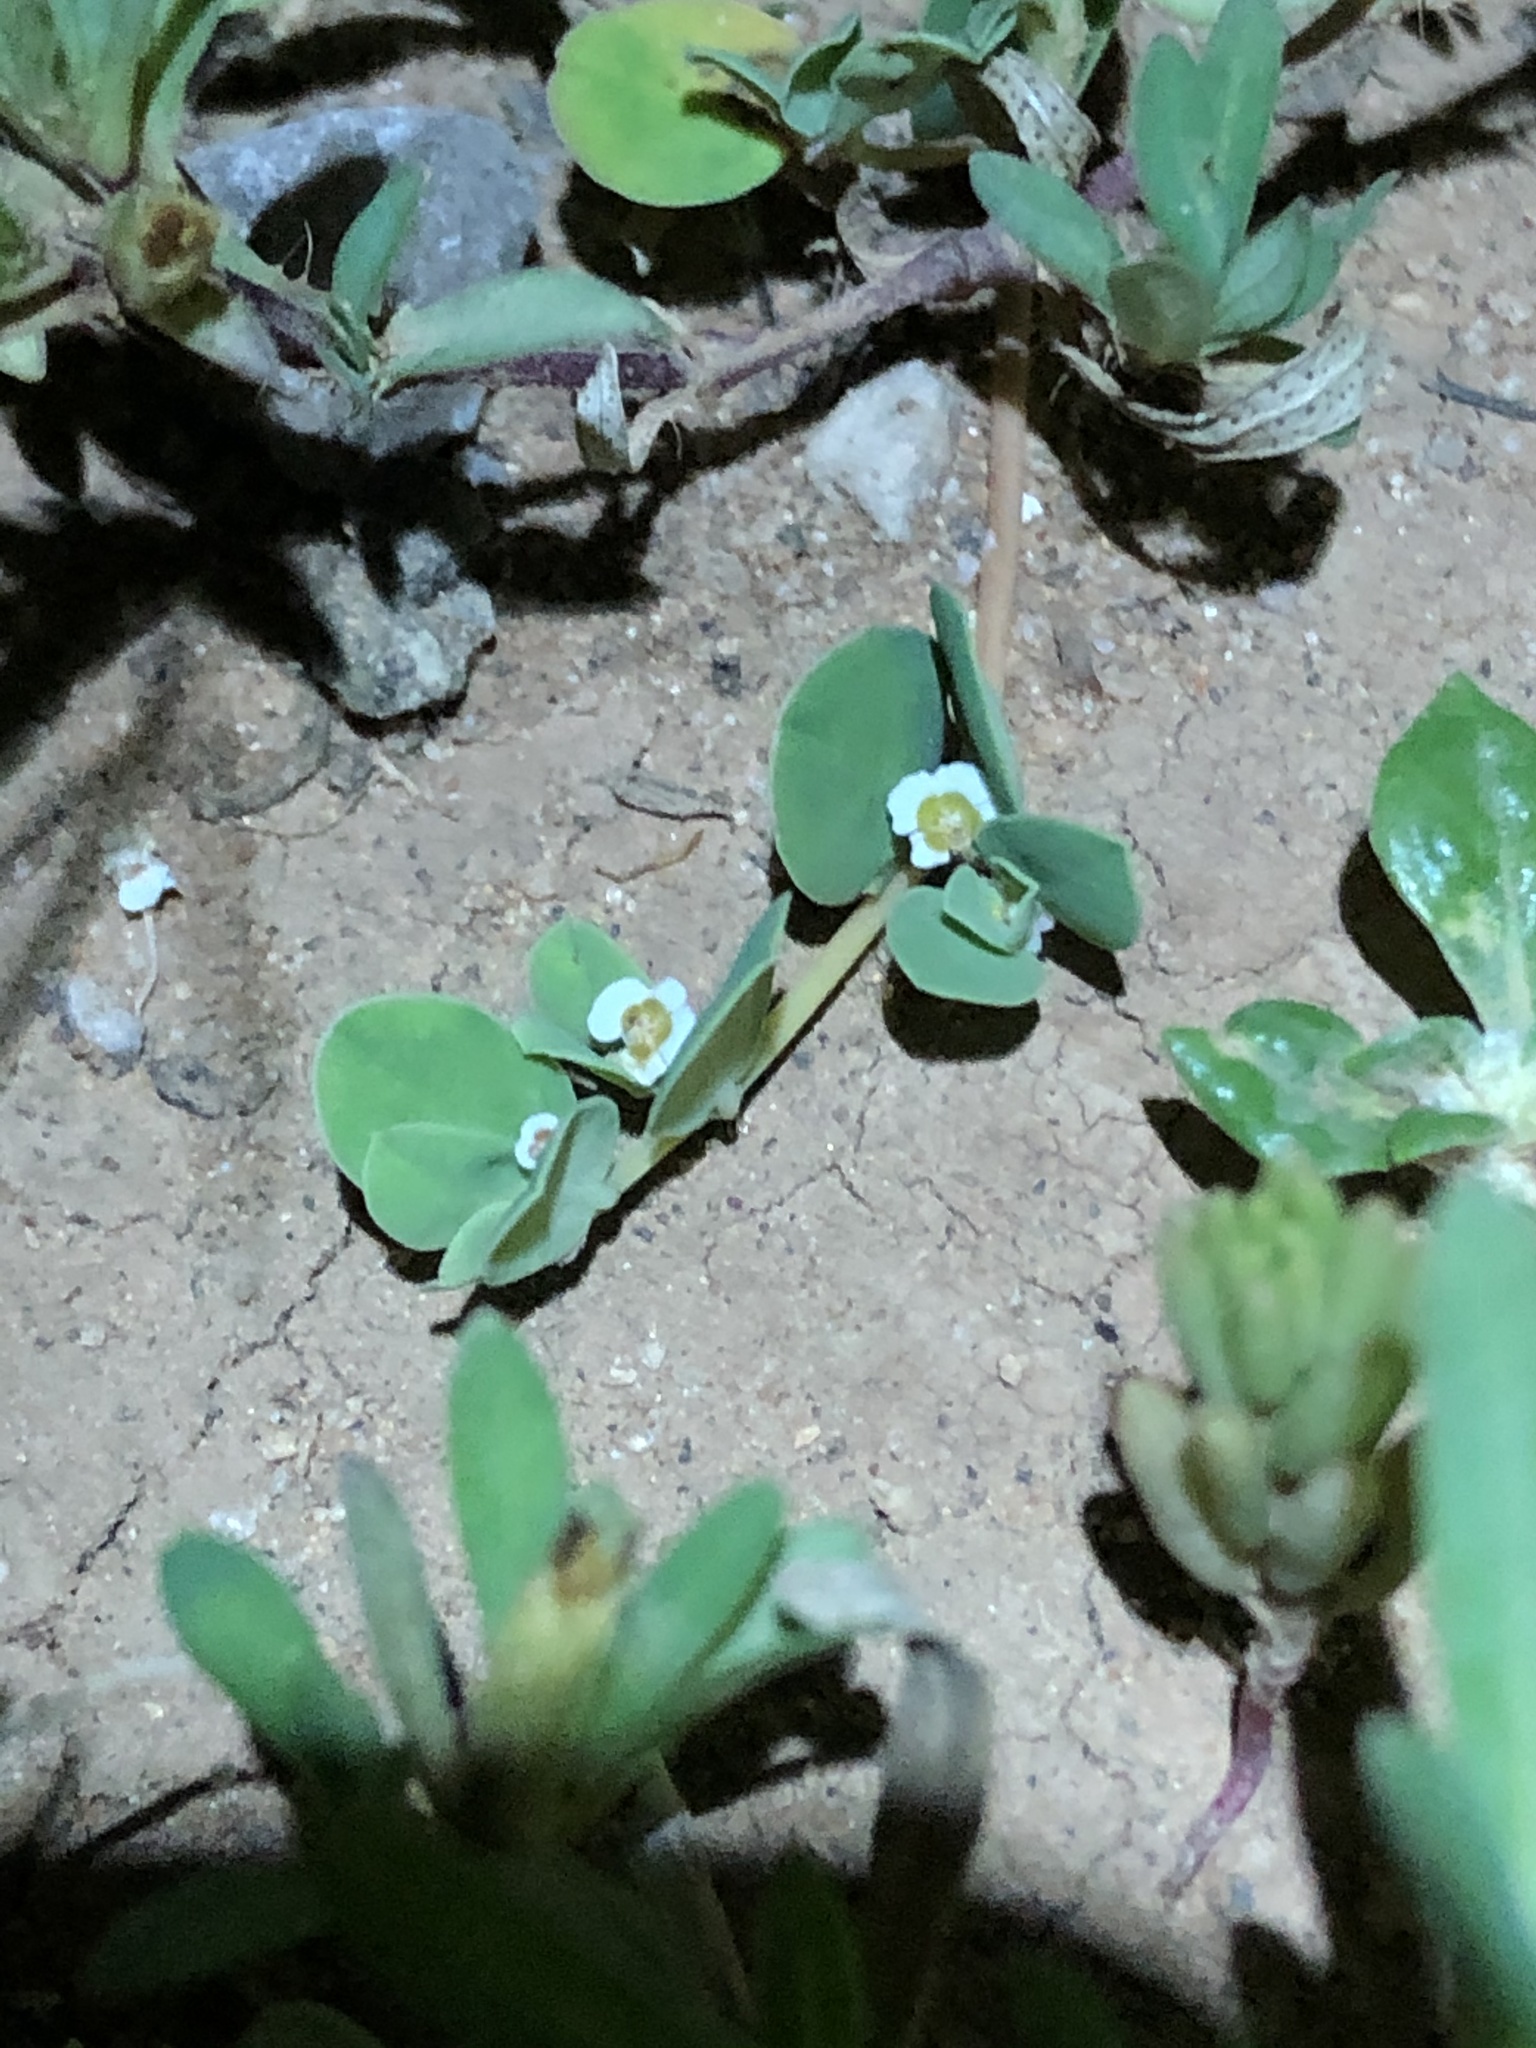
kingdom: Plantae
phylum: Tracheophyta
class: Magnoliopsida
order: Malpighiales
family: Euphorbiaceae
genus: Euphorbia
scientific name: Euphorbia albomarginata
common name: Whitemargin sandmat
